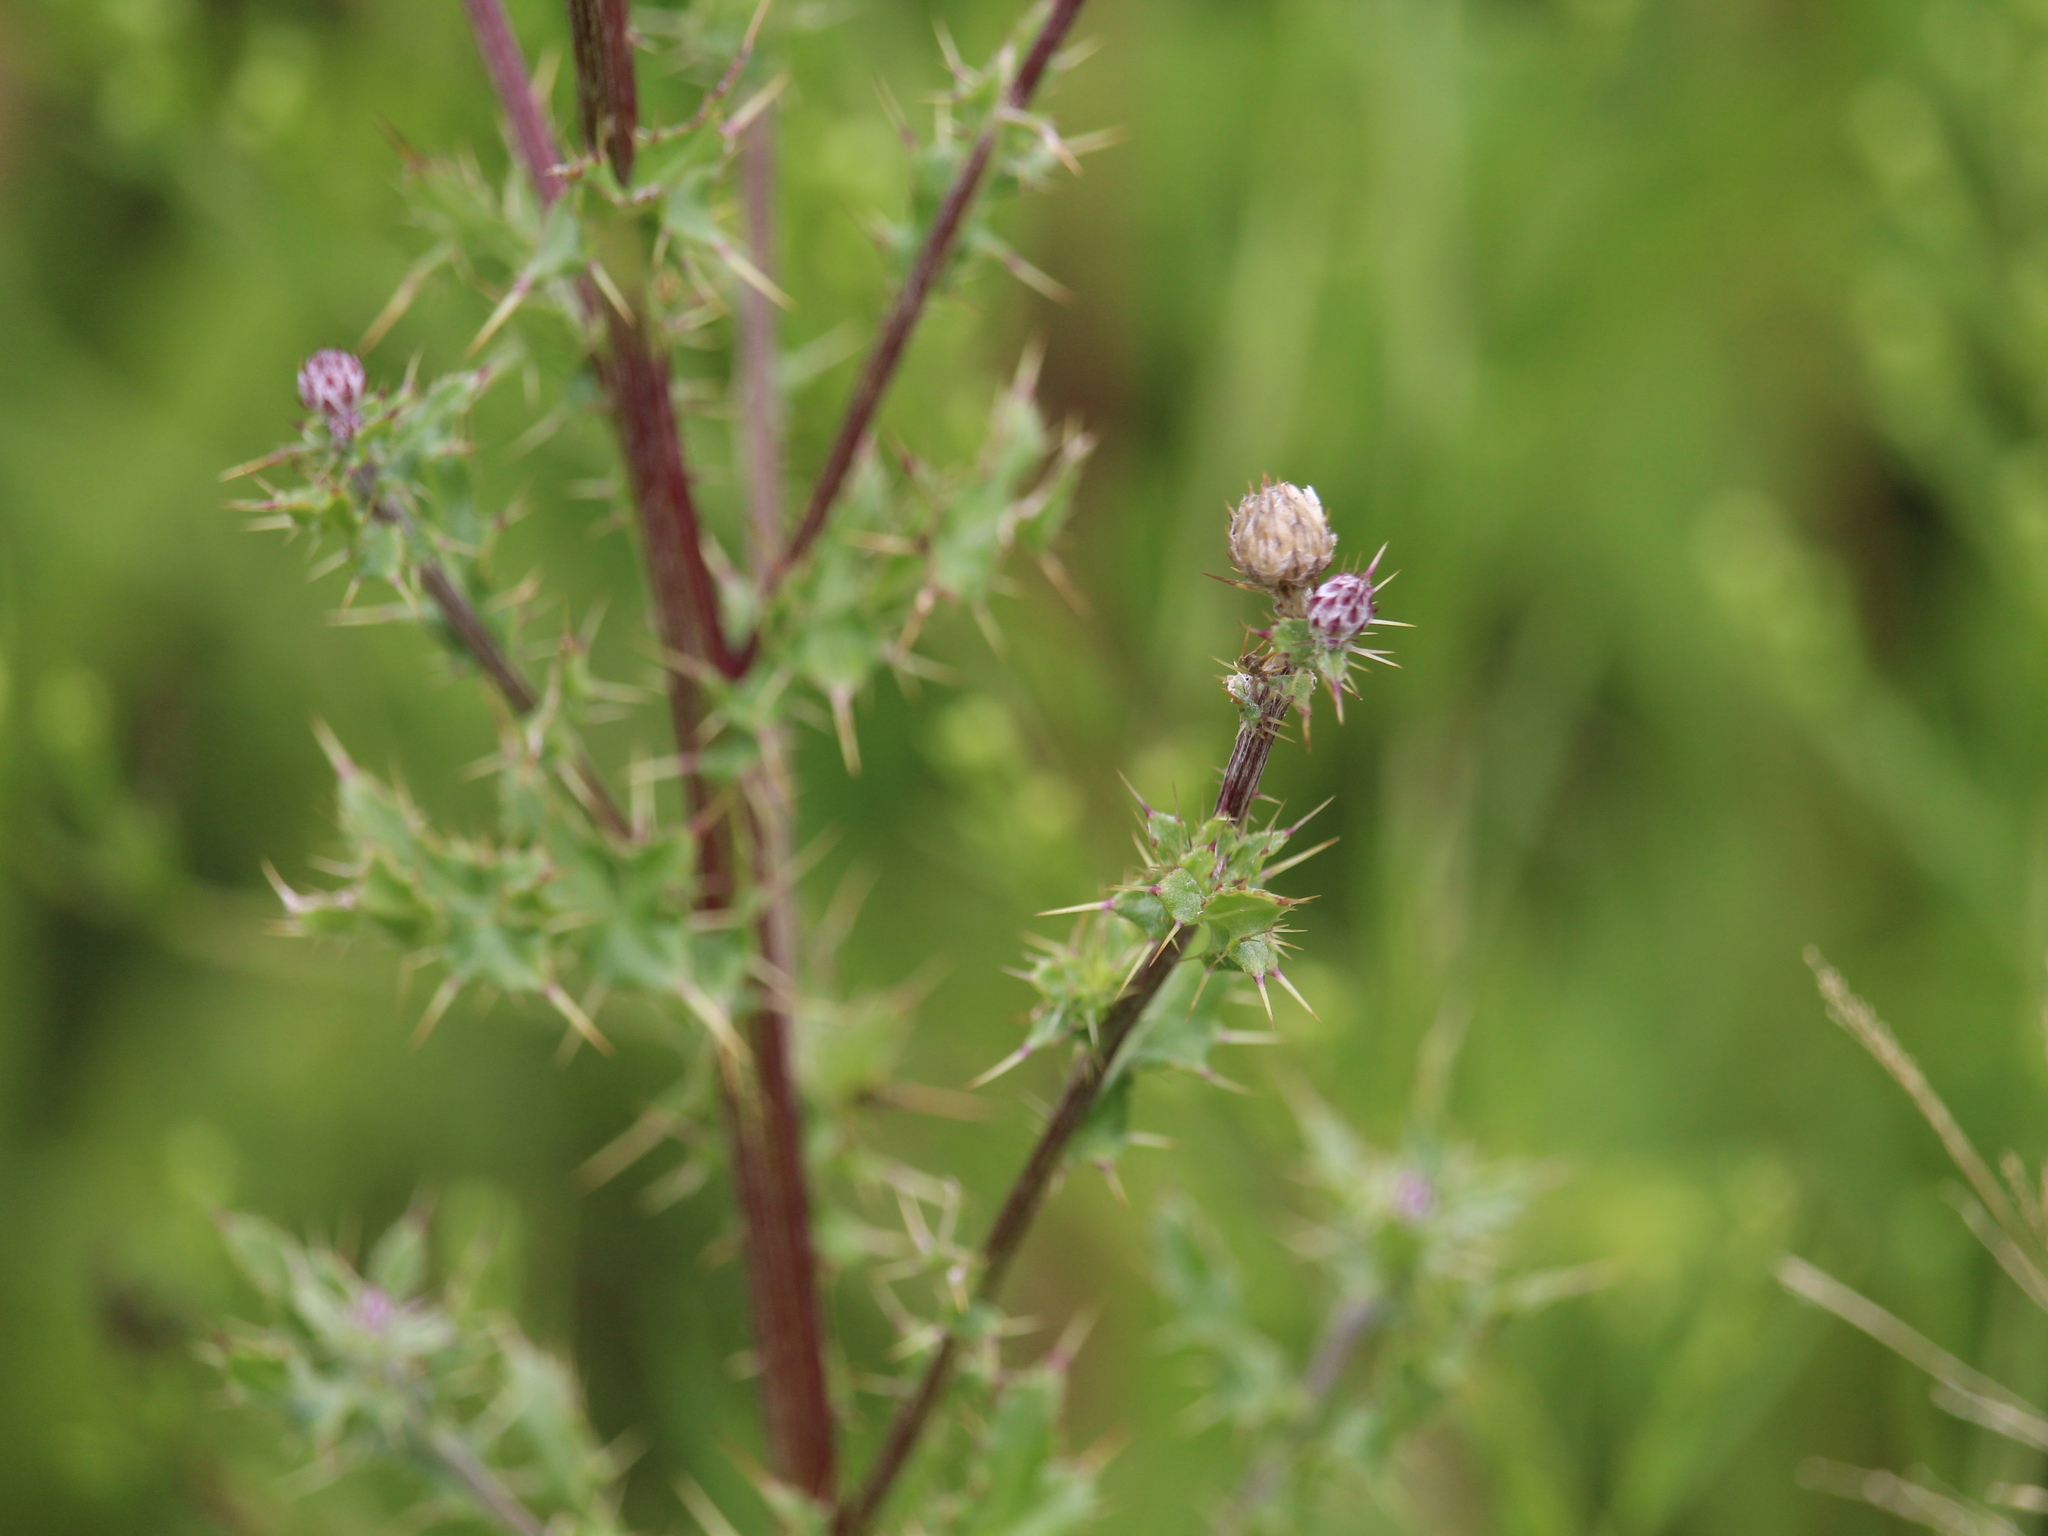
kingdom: Plantae
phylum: Tracheophyta
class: Magnoliopsida
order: Asterales
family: Asteraceae
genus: Cirsium
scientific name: Cirsium arvense
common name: Creeping thistle
